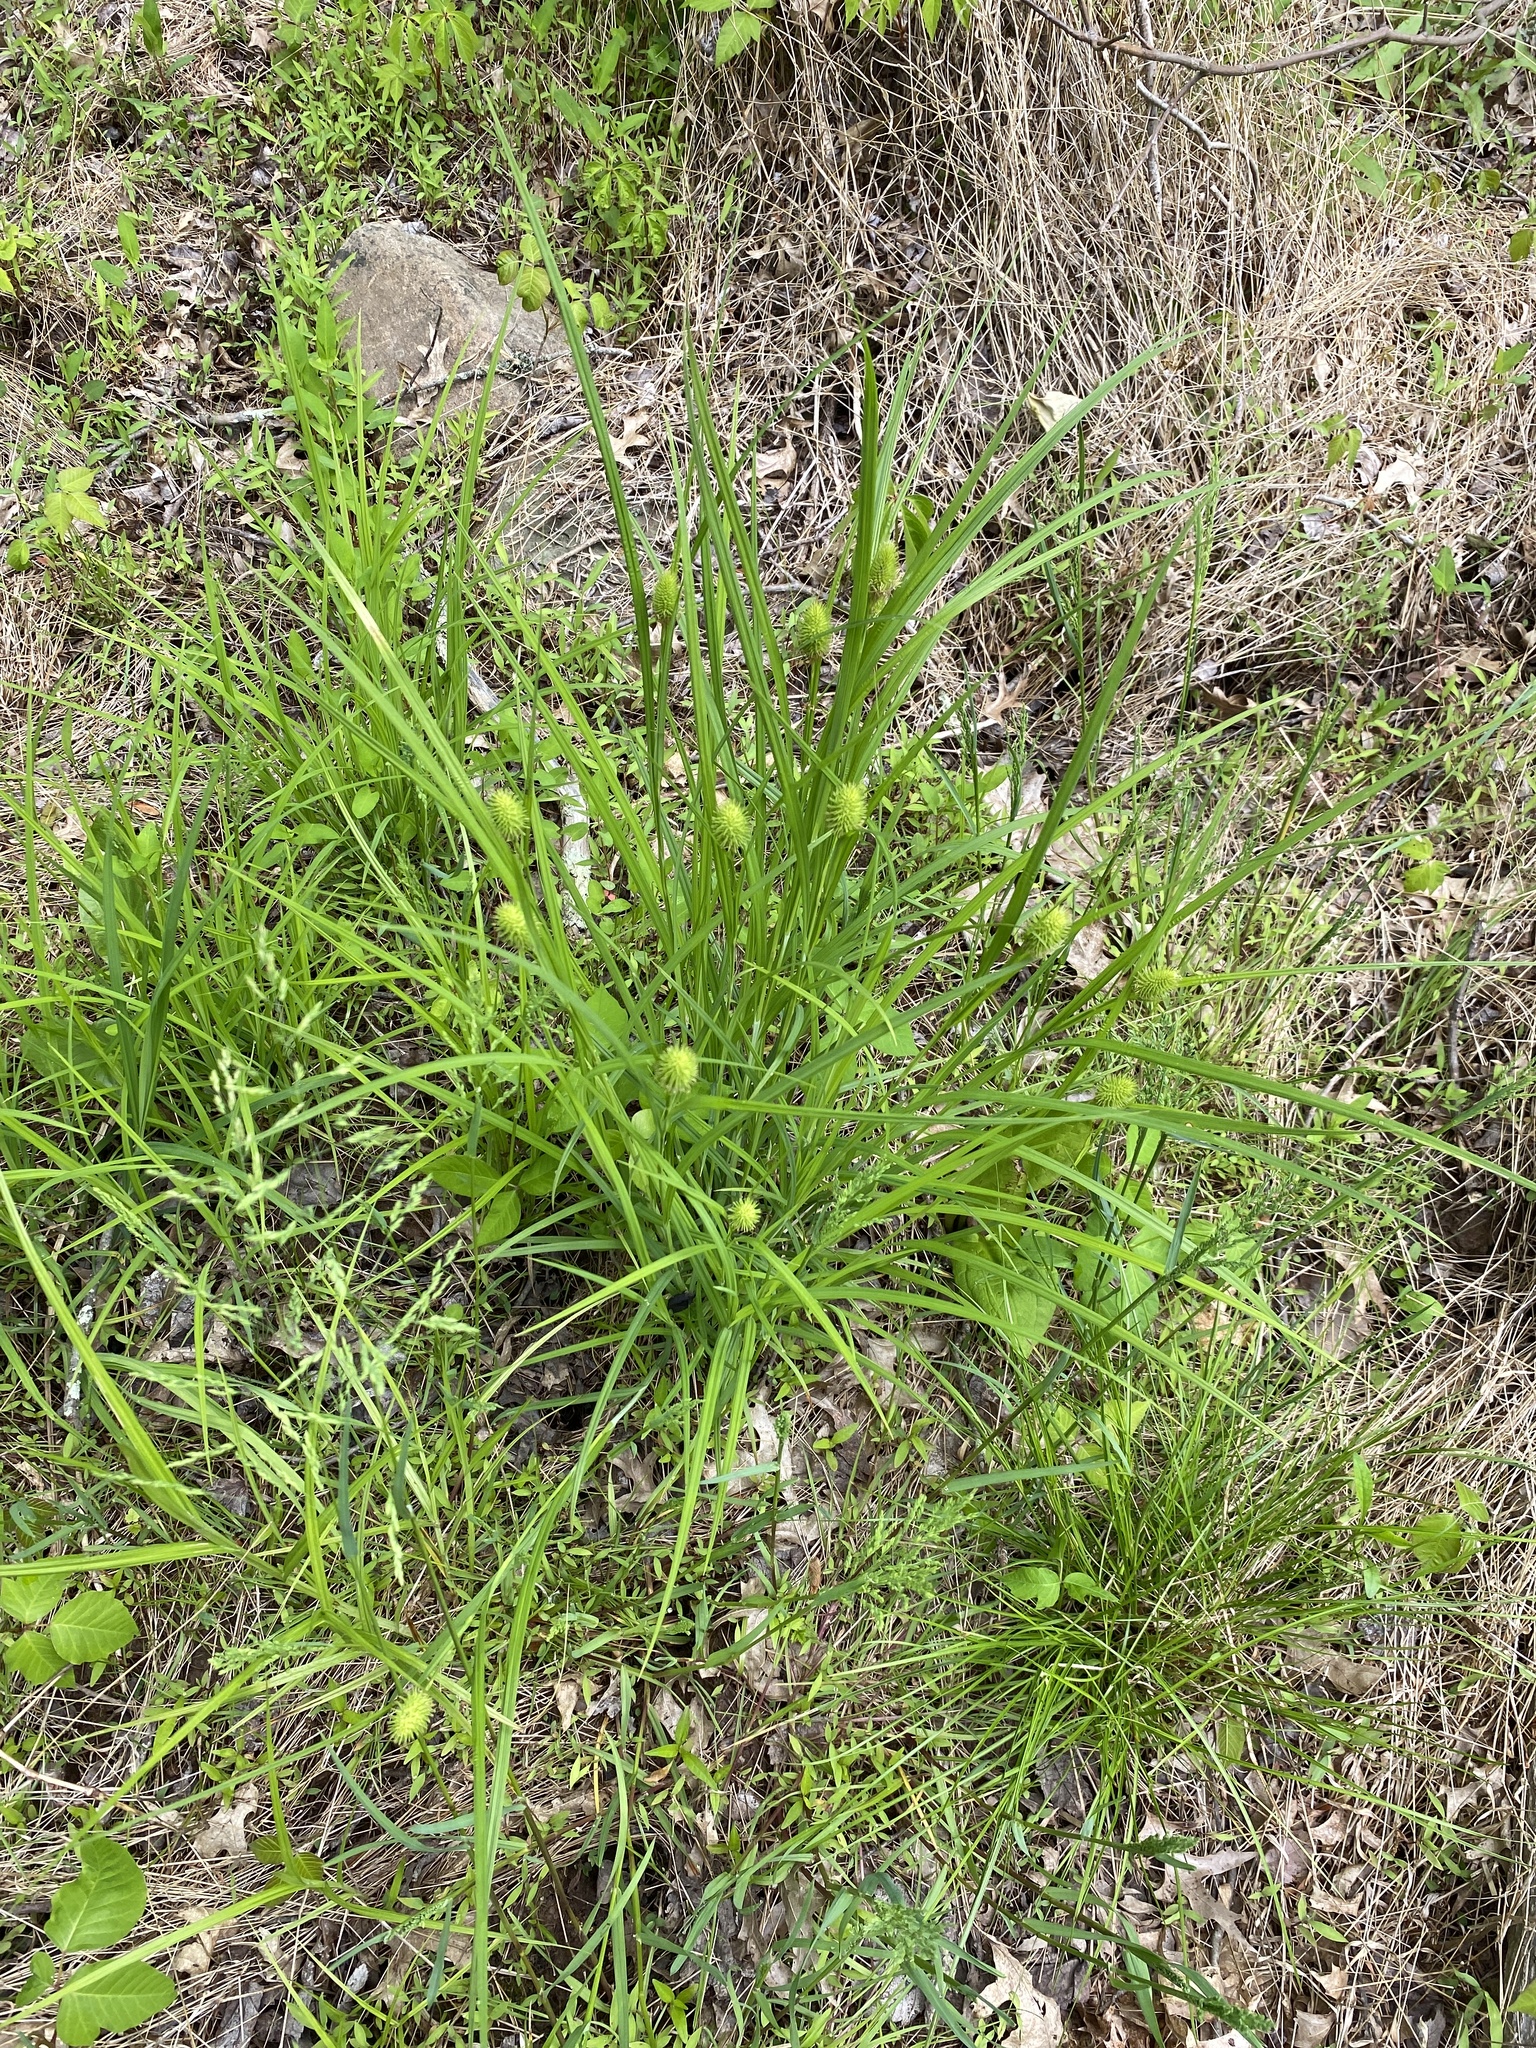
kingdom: Plantae
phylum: Tracheophyta
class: Liliopsida
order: Poales
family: Cyperaceae
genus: Carex
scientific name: Carex squarrosa
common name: Narrow-leaved cattail sedge
